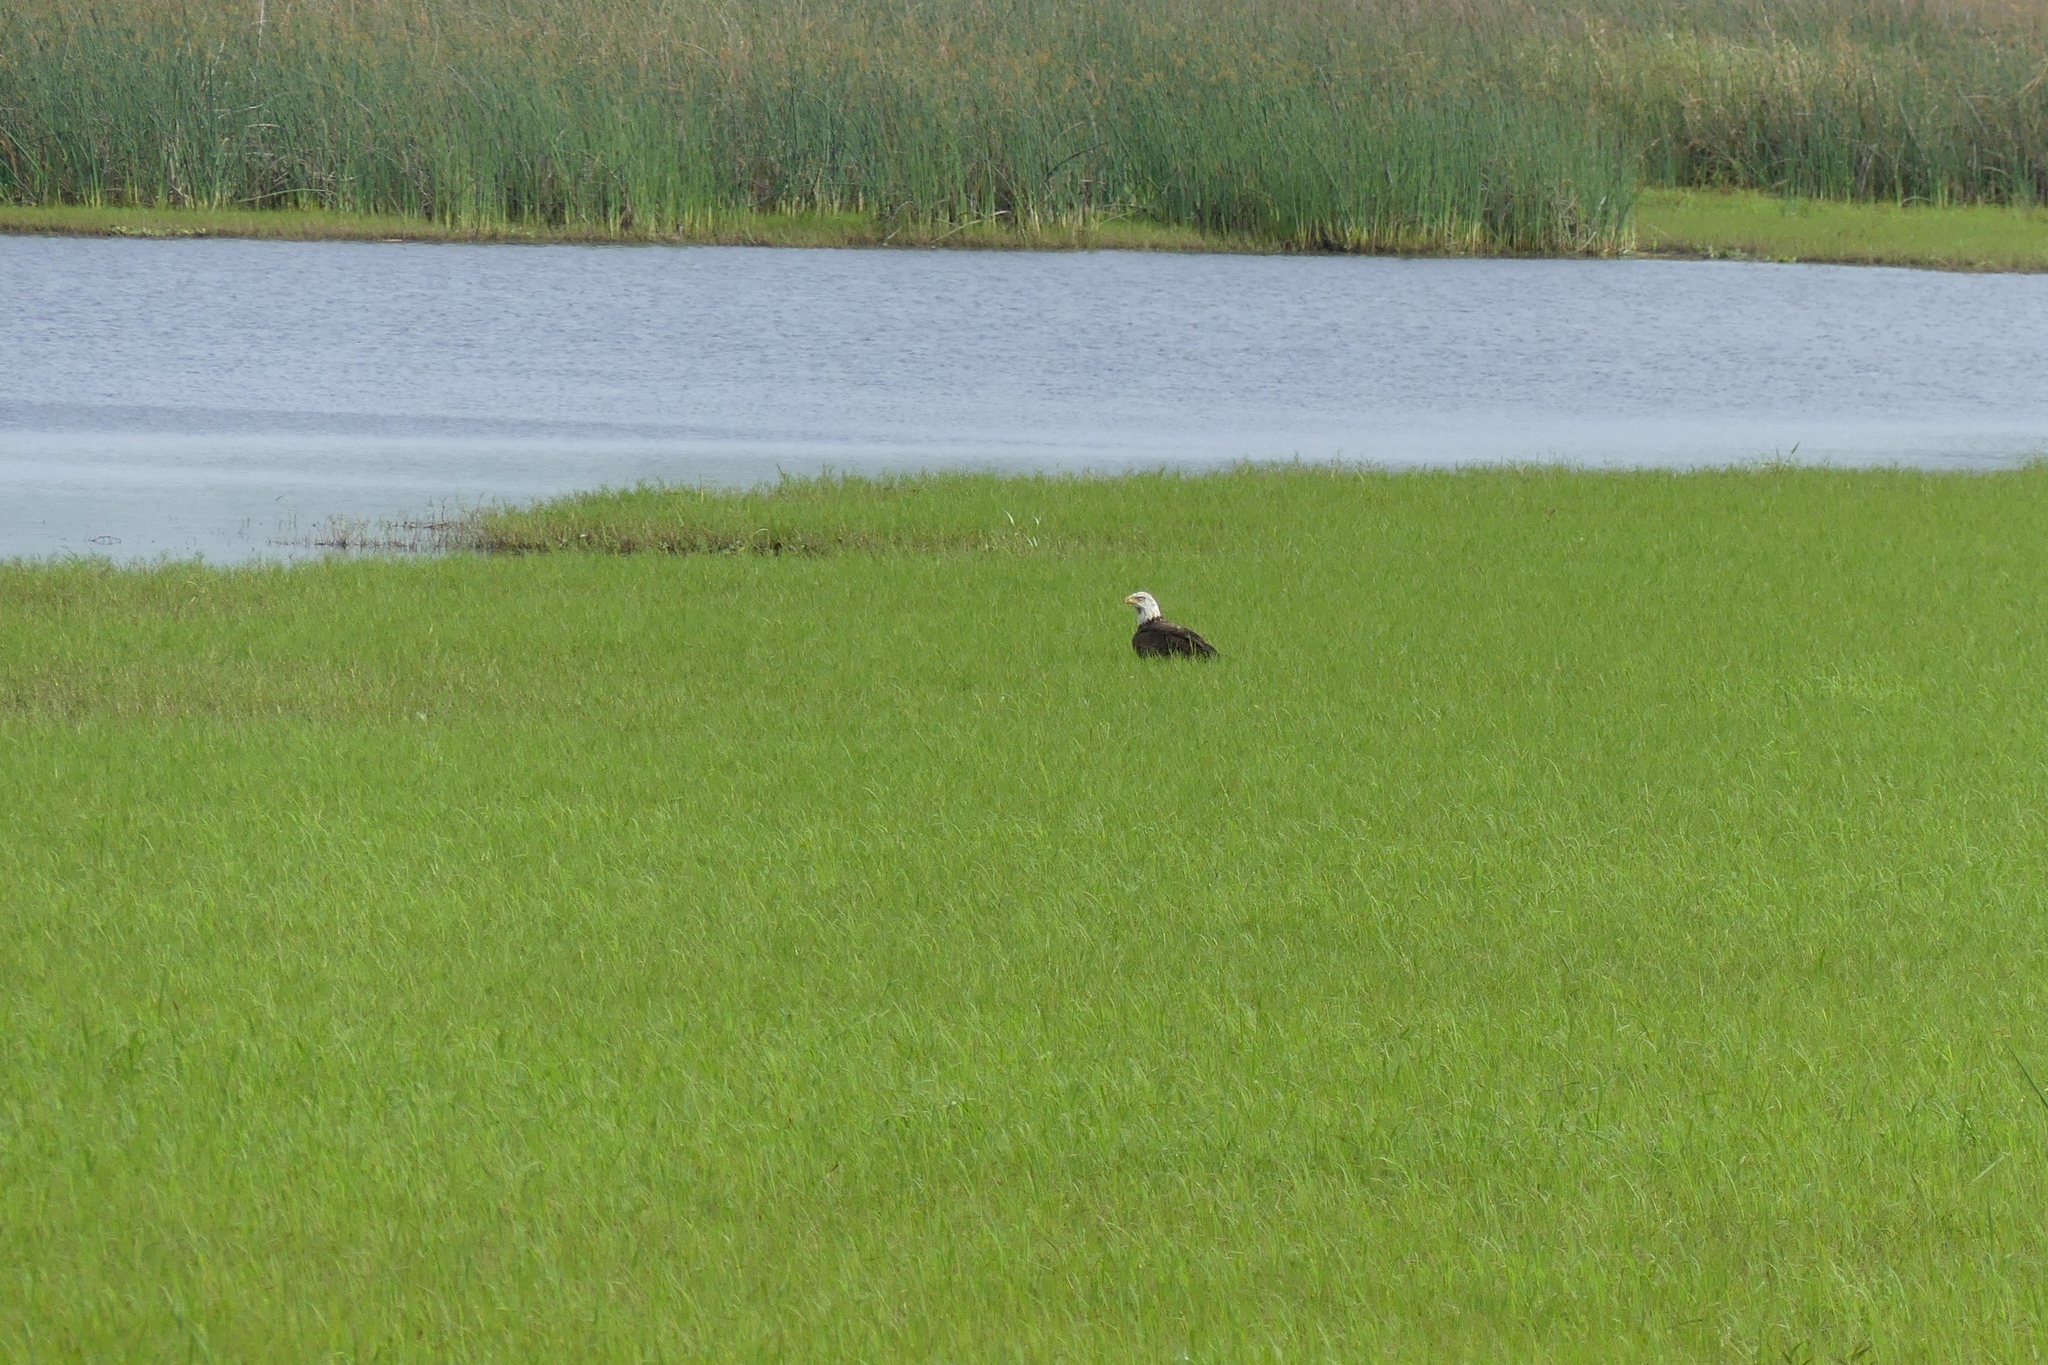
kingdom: Animalia
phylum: Chordata
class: Aves
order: Accipitriformes
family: Accipitridae
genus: Haliaeetus
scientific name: Haliaeetus leucocephalus
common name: Bald eagle
